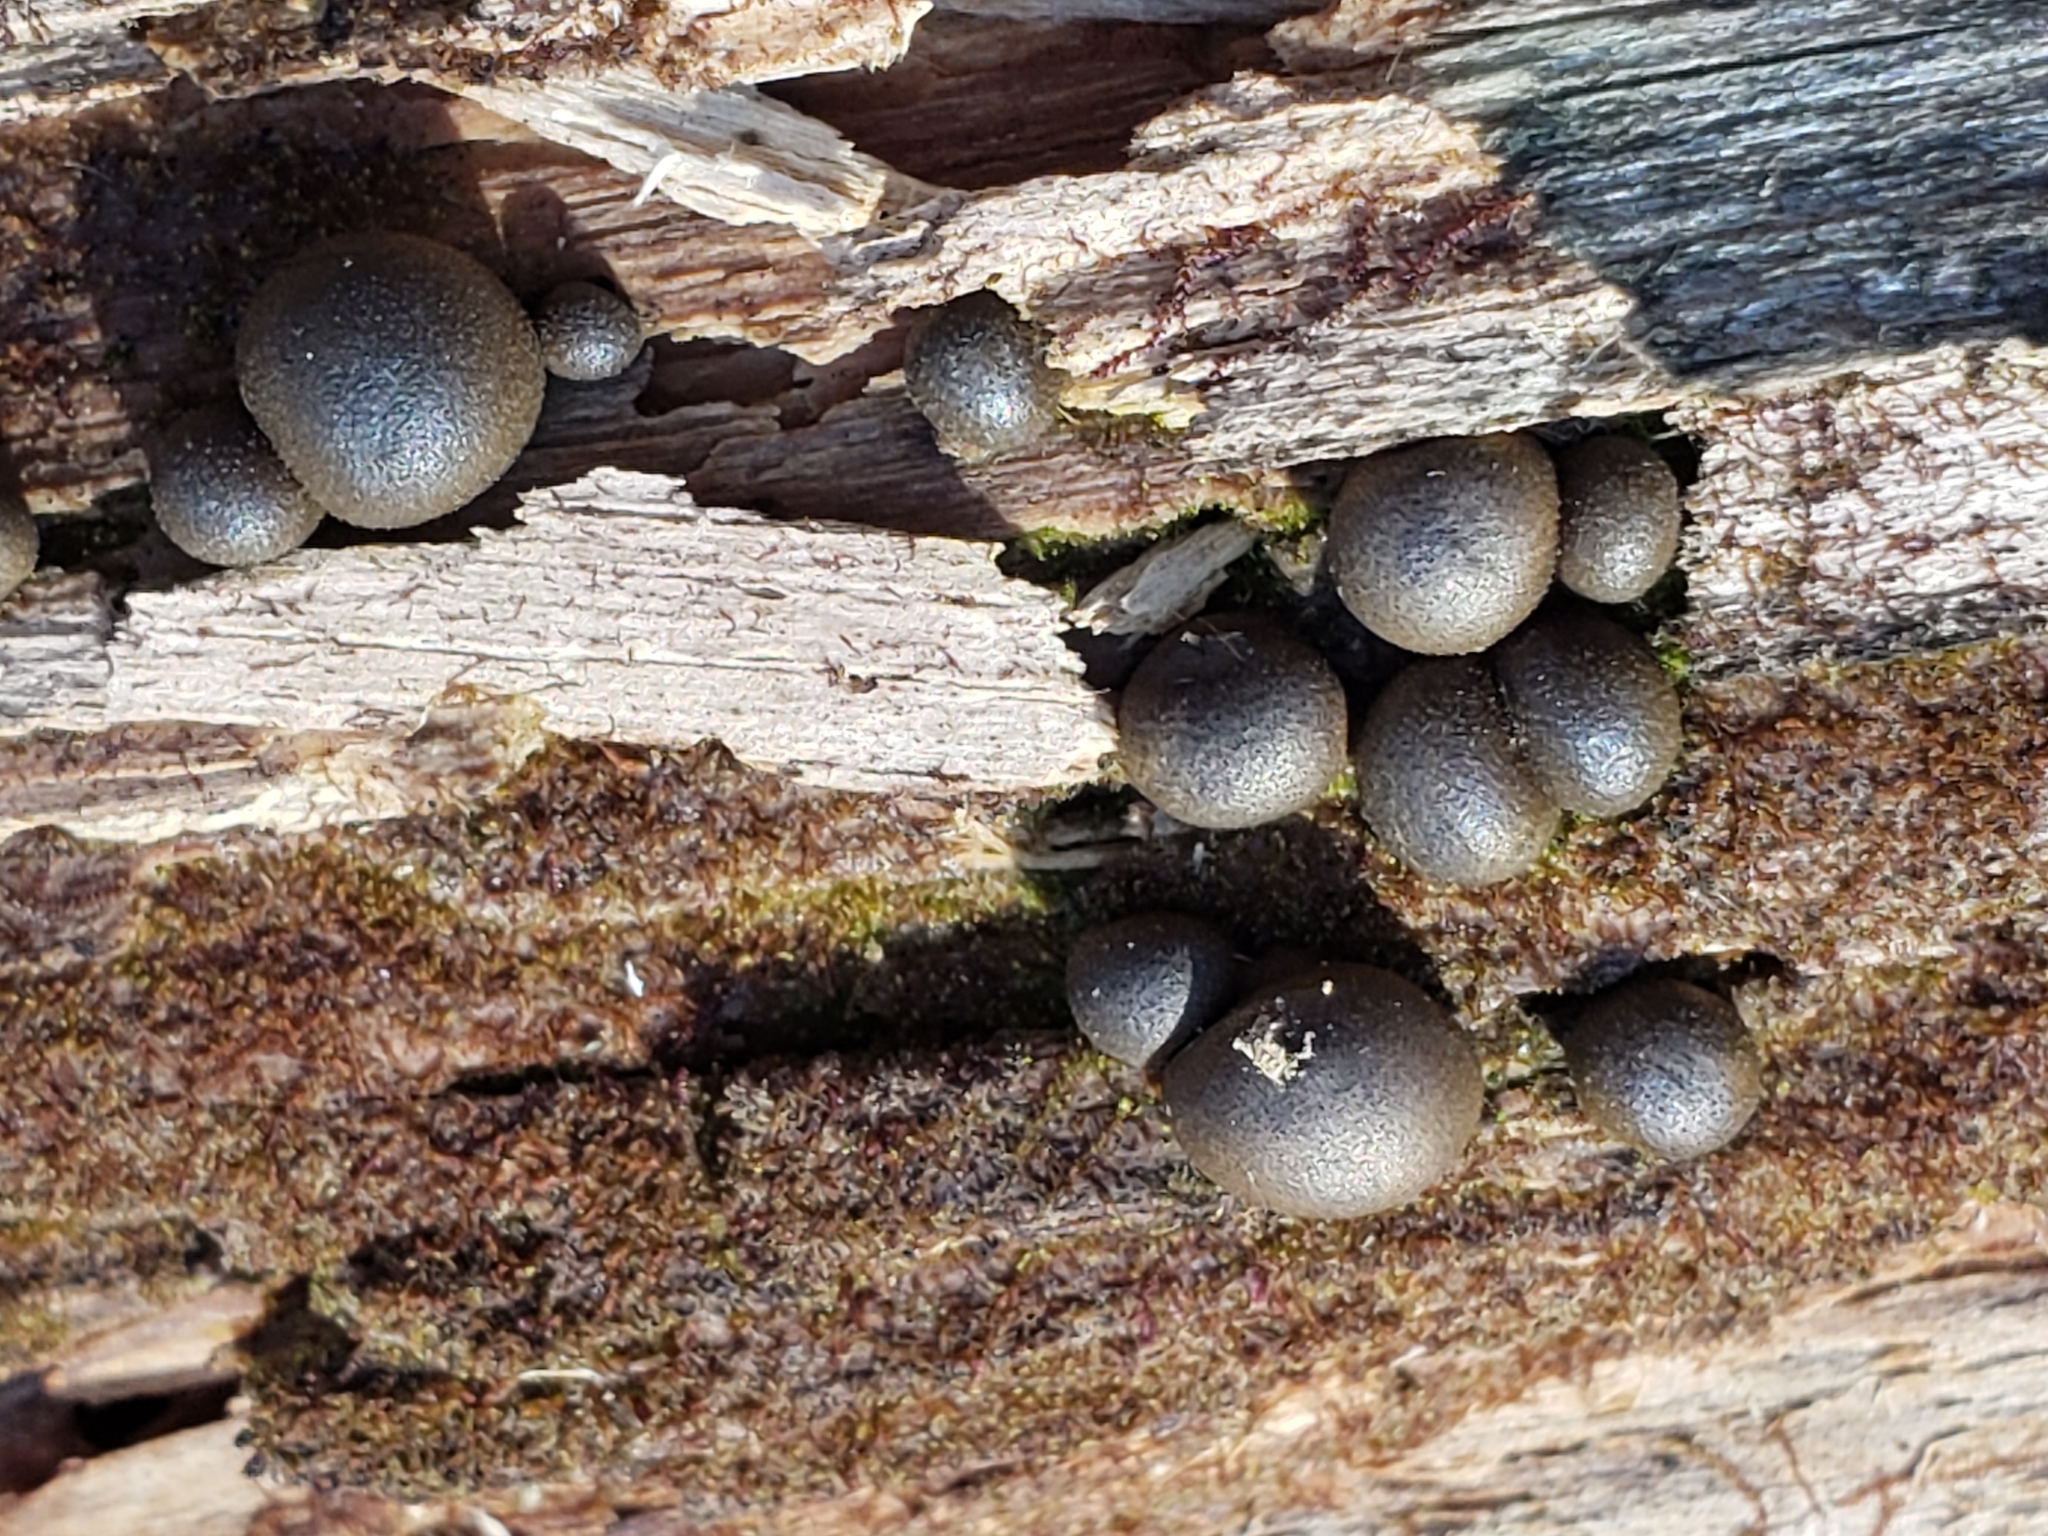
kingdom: Protozoa
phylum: Mycetozoa
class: Myxomycetes
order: Cribrariales
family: Tubiferaceae
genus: Lycogala
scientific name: Lycogala epidendrum
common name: Wolf's milk
